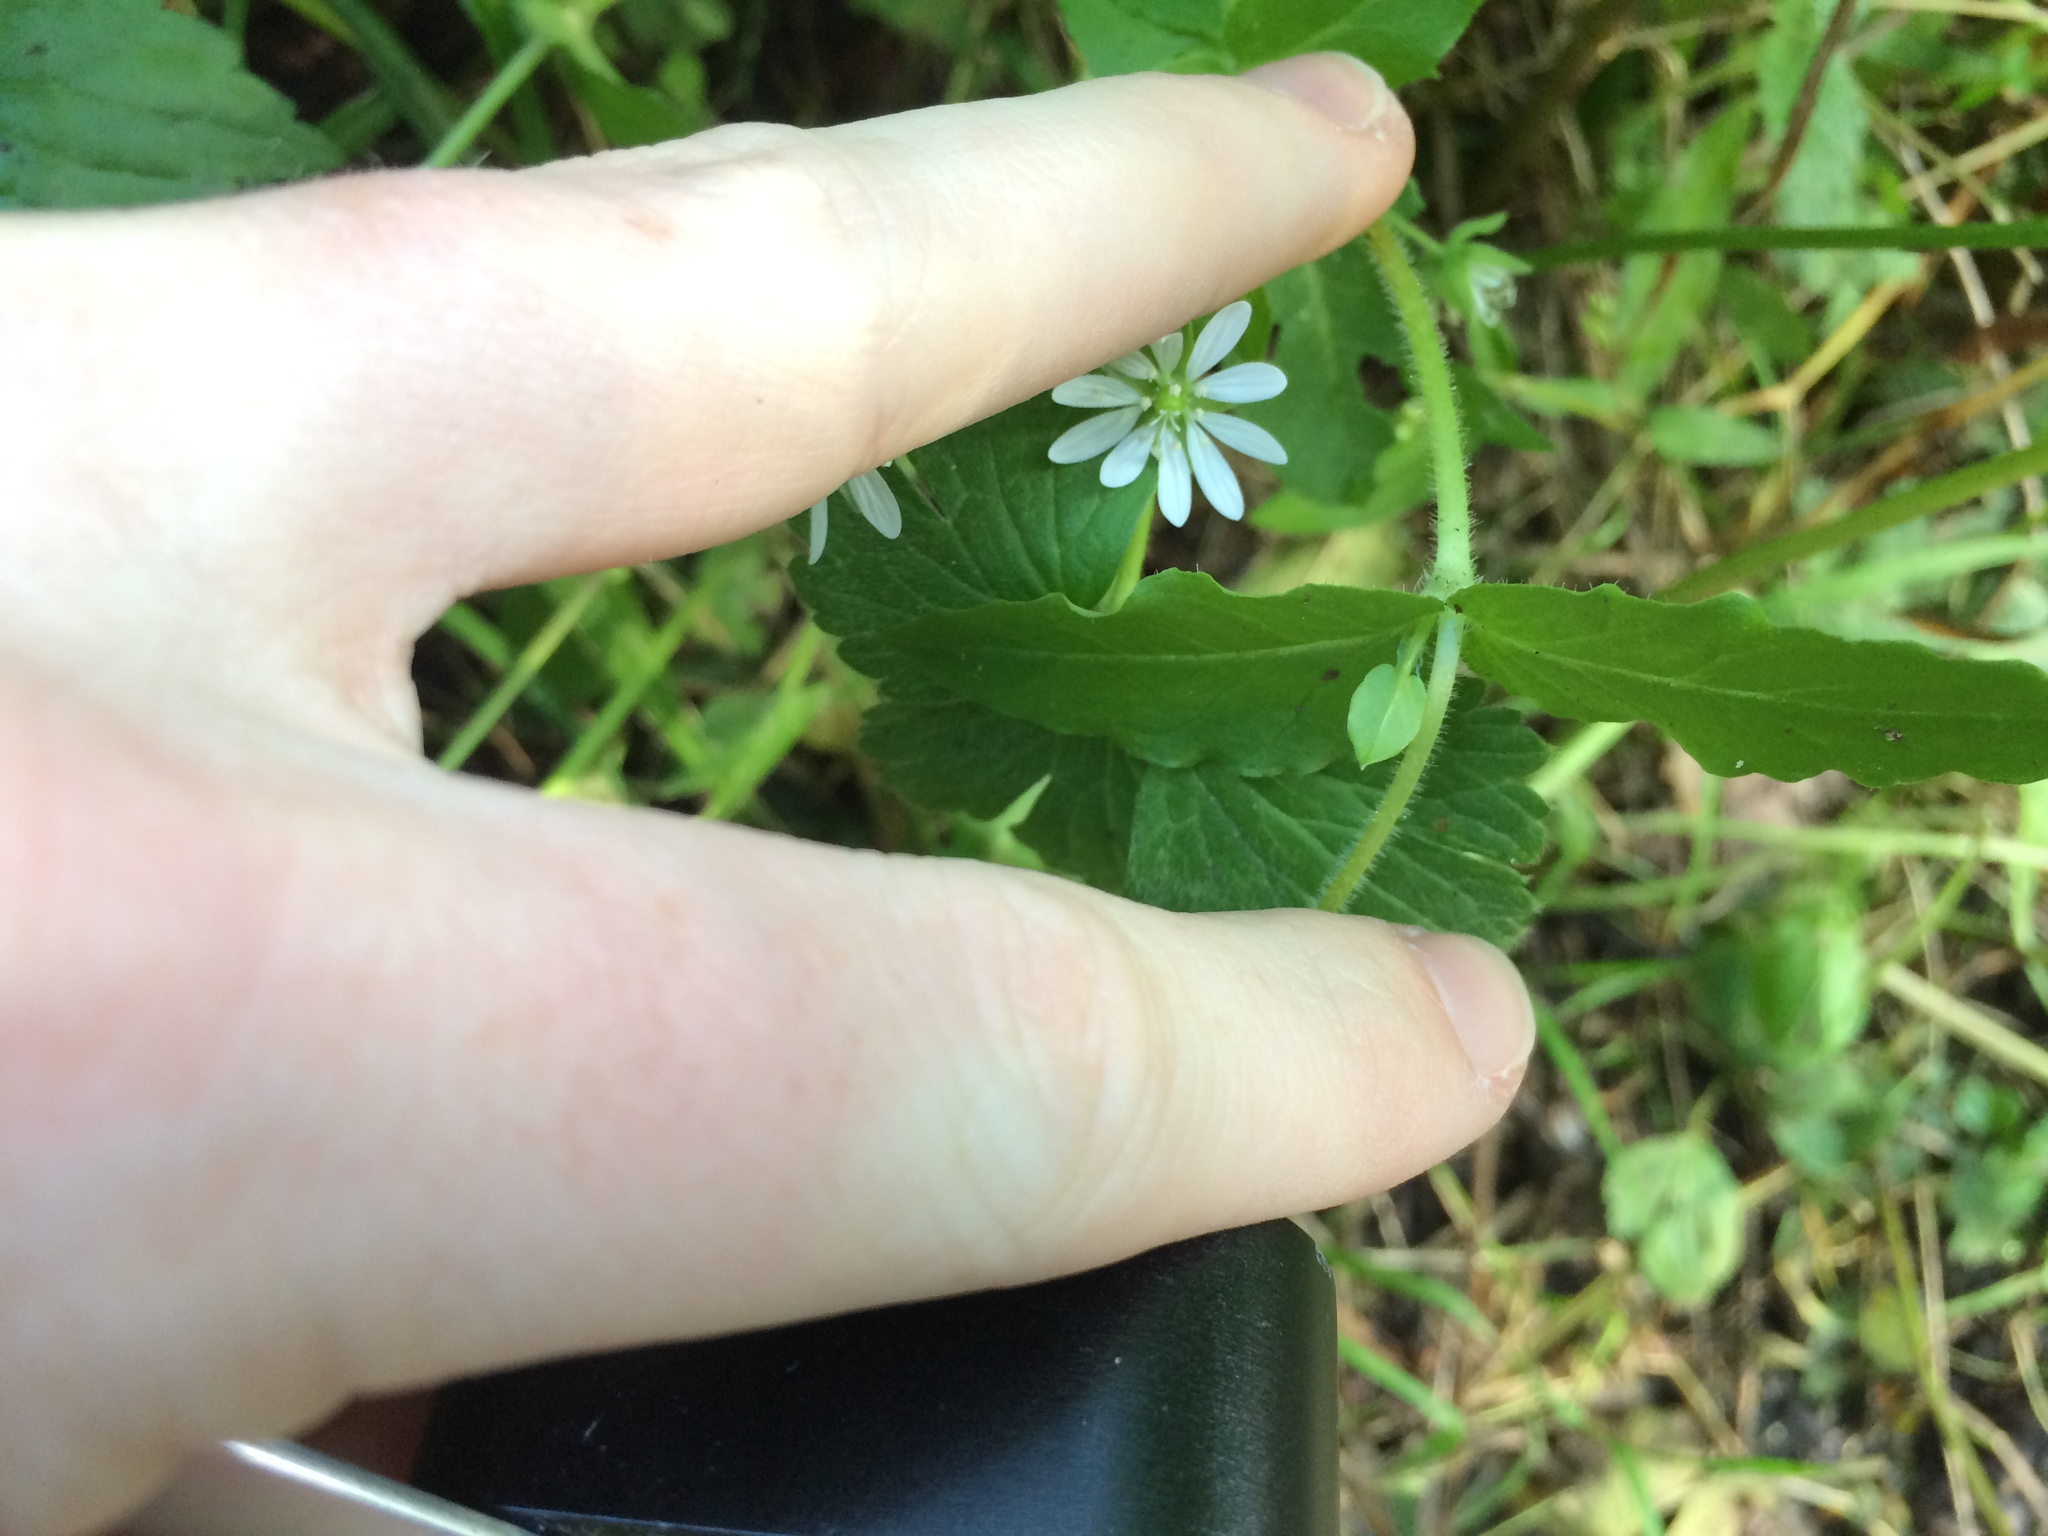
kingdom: Plantae
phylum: Tracheophyta
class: Magnoliopsida
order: Caryophyllales
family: Caryophyllaceae
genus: Stellaria
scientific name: Stellaria aquatica
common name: Water chickweed
